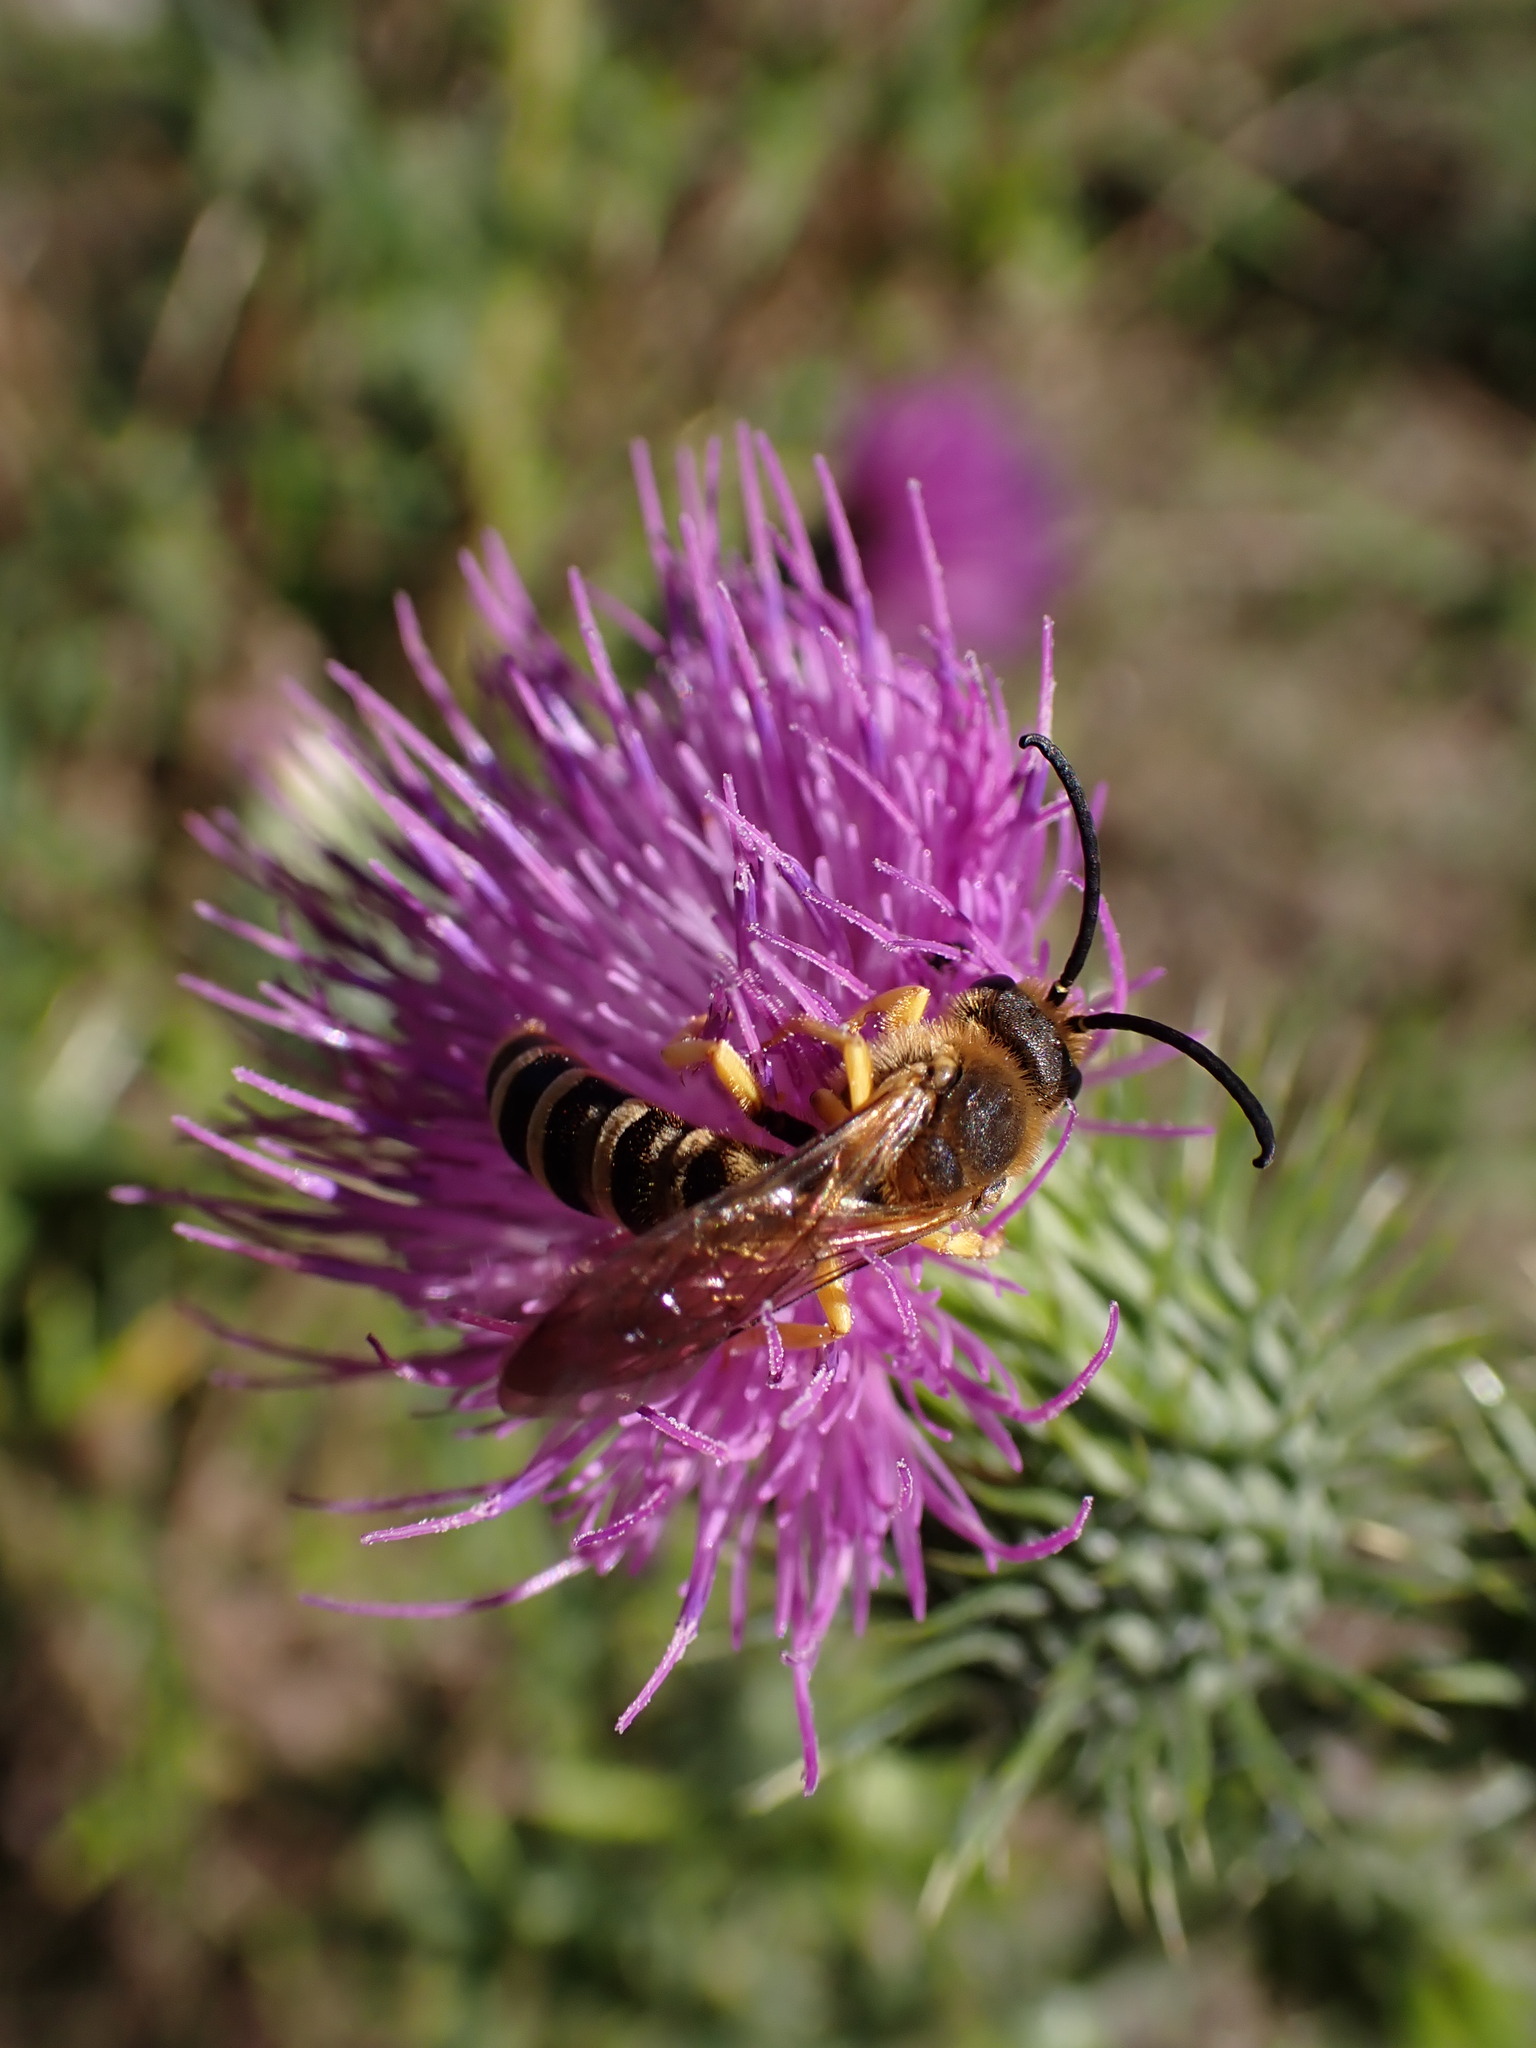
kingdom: Animalia
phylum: Arthropoda
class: Insecta
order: Hymenoptera
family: Halictidae
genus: Halictus
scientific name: Halictus scabiosae
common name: Great banded furrow bee
